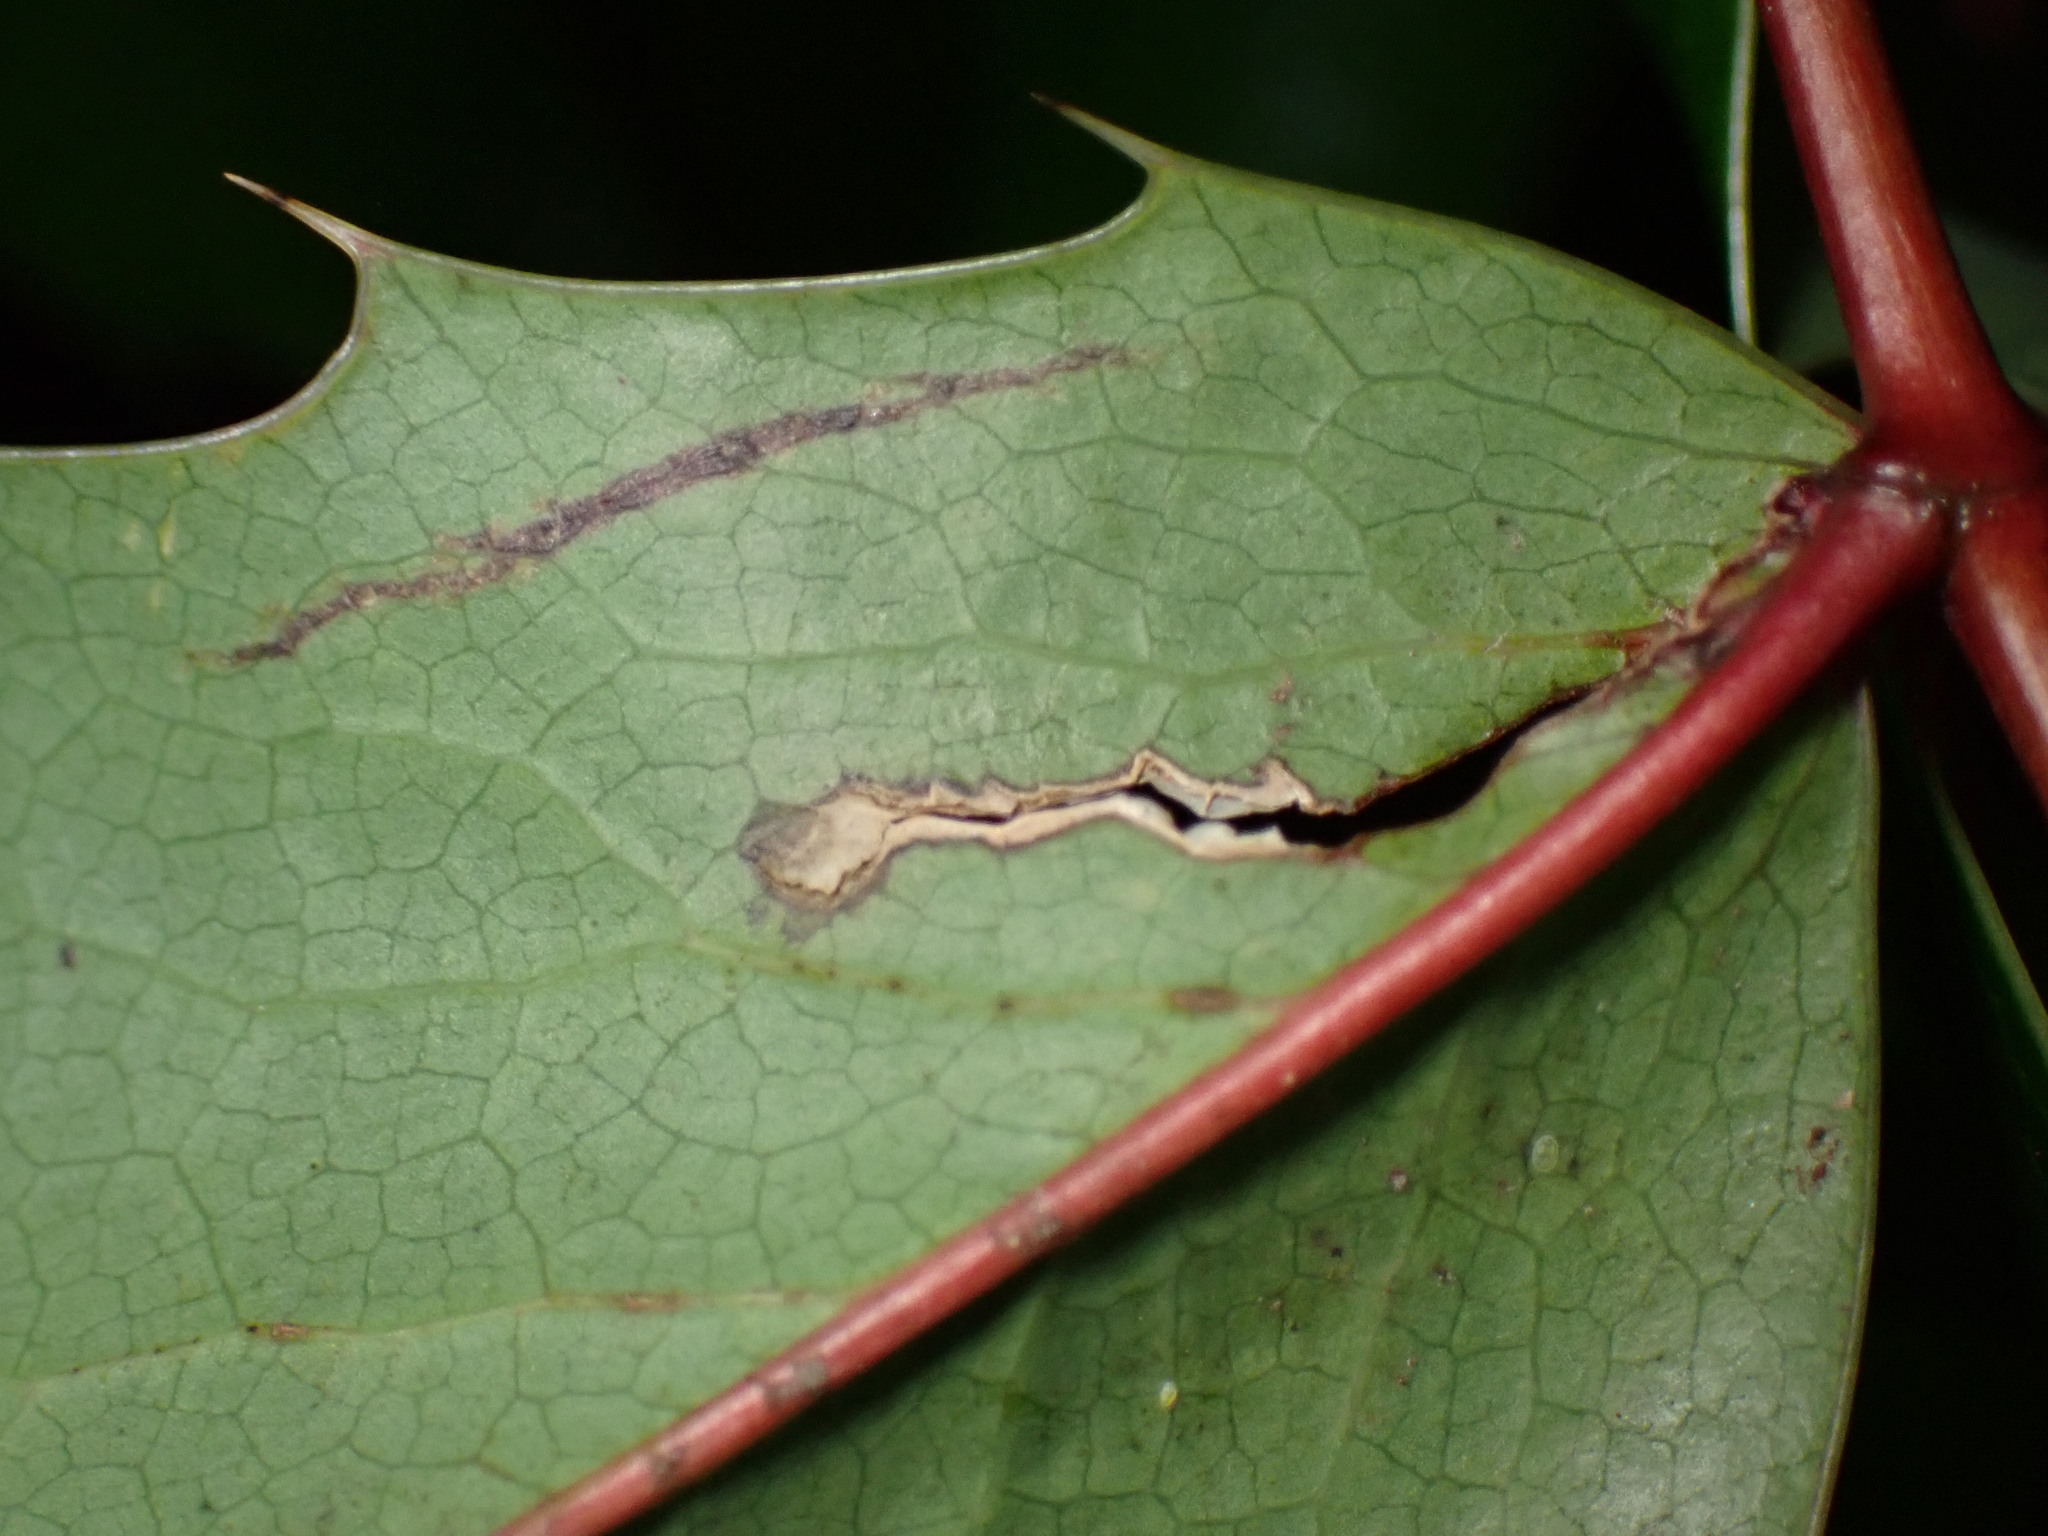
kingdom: Plantae
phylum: Tracheophyta
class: Magnoliopsida
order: Ranunculales
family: Berberidaceae
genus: Mahonia
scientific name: Mahonia aquifolium
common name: Oregon-grape
